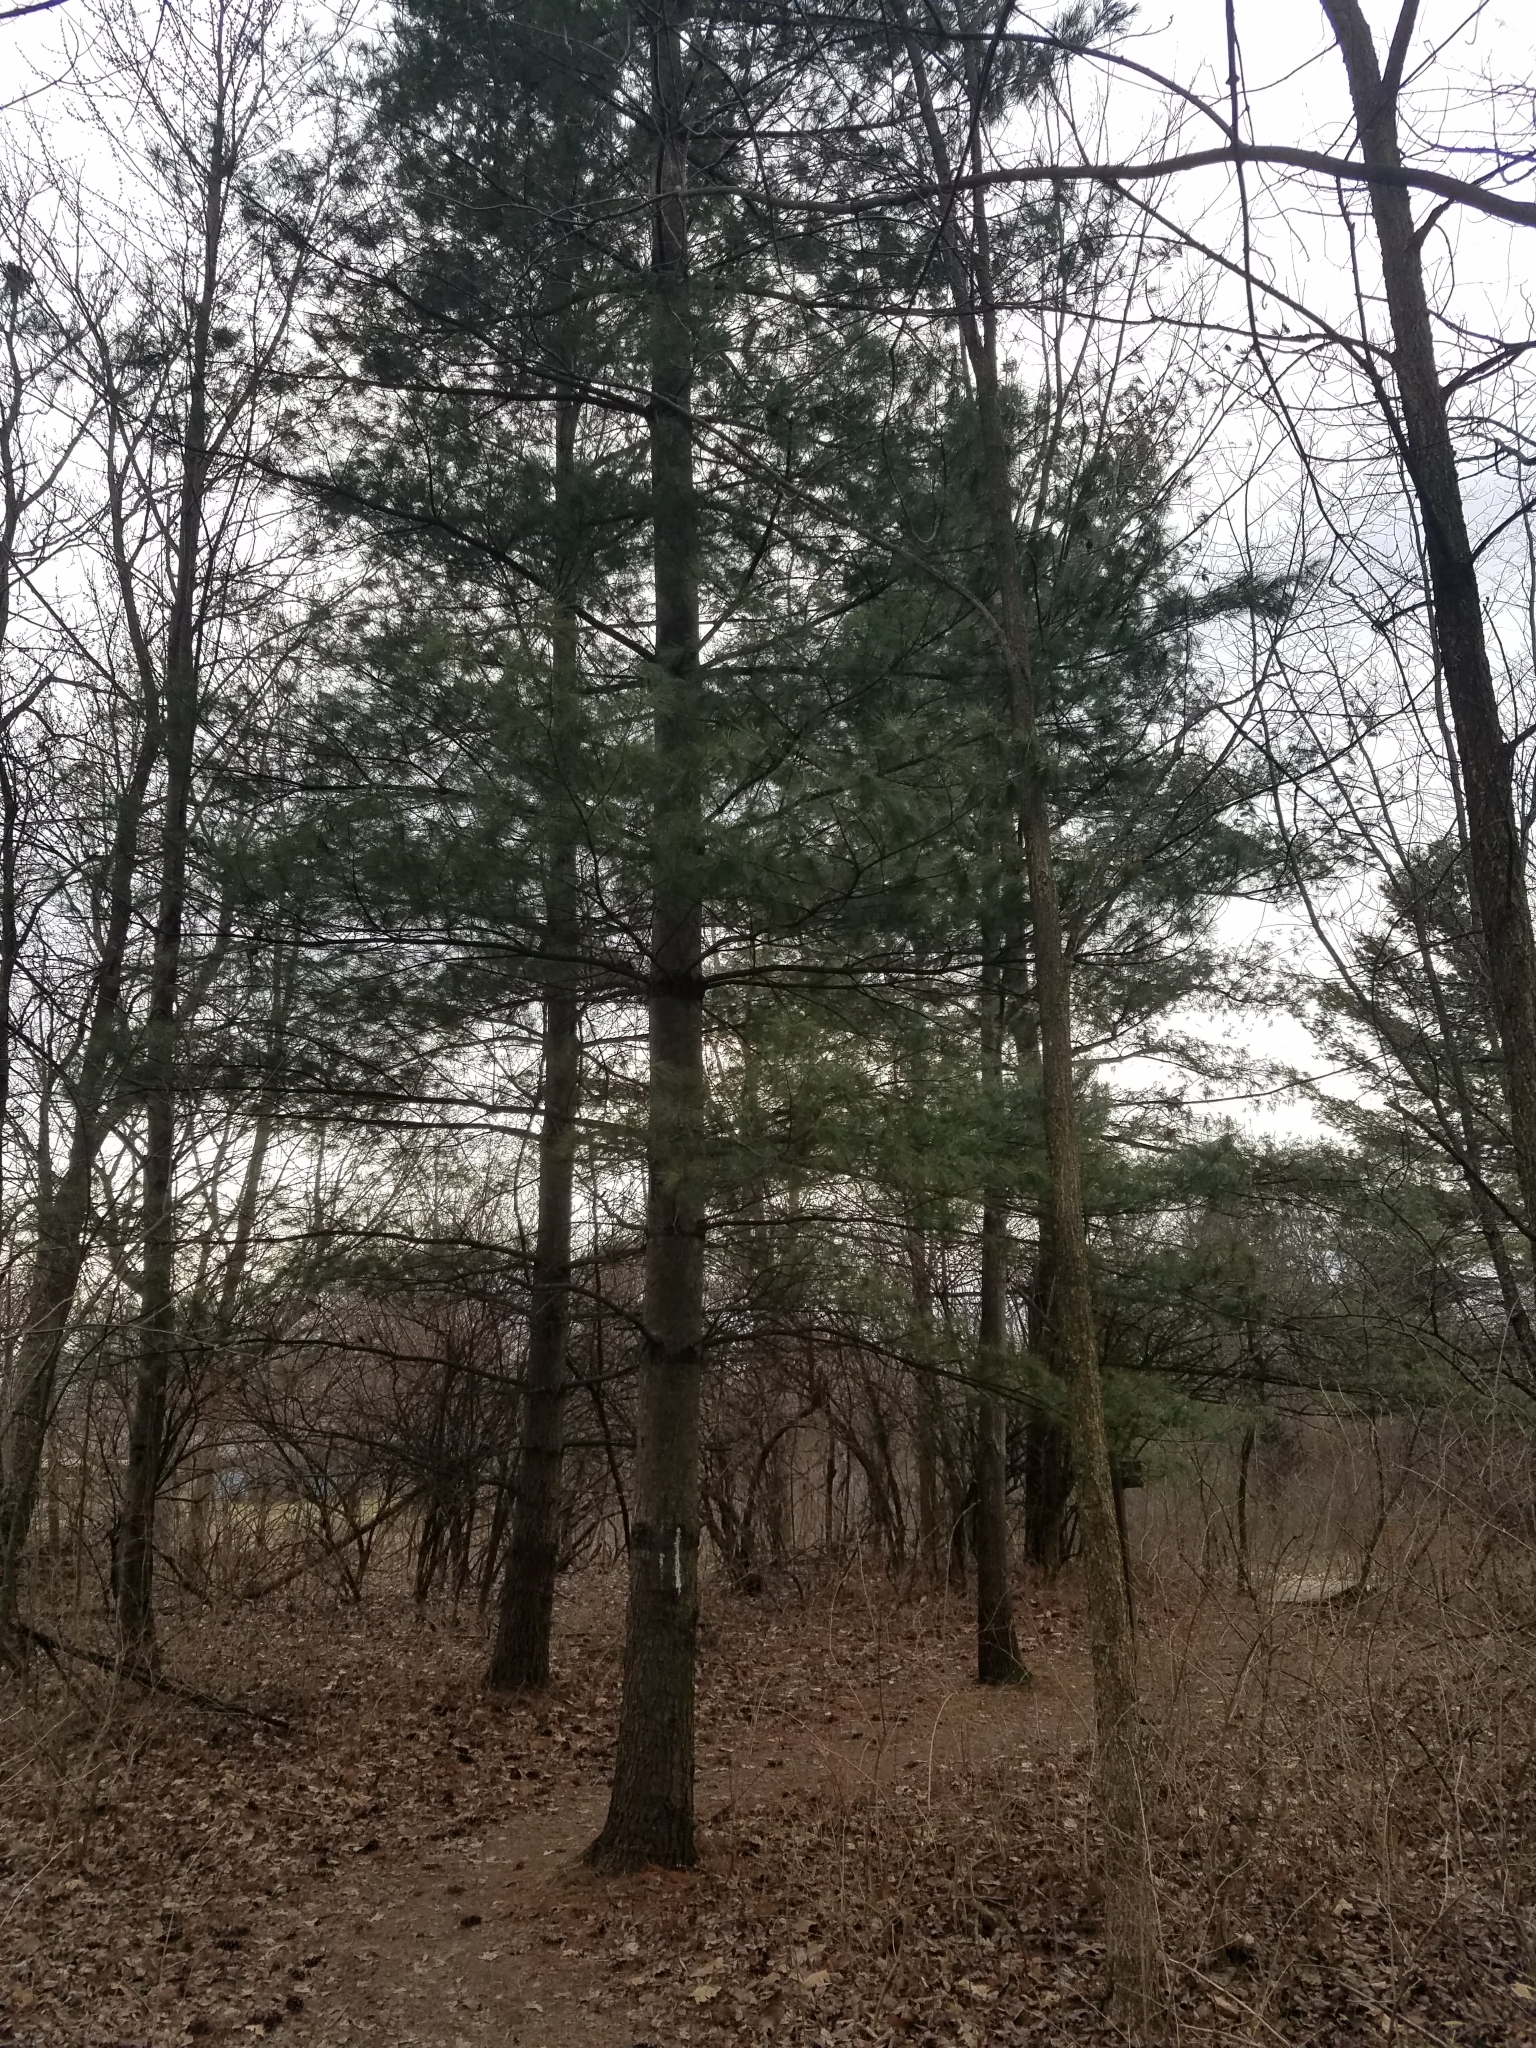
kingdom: Plantae
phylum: Tracheophyta
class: Pinopsida
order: Pinales
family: Pinaceae
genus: Pinus
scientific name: Pinus strobus
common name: Weymouth pine
